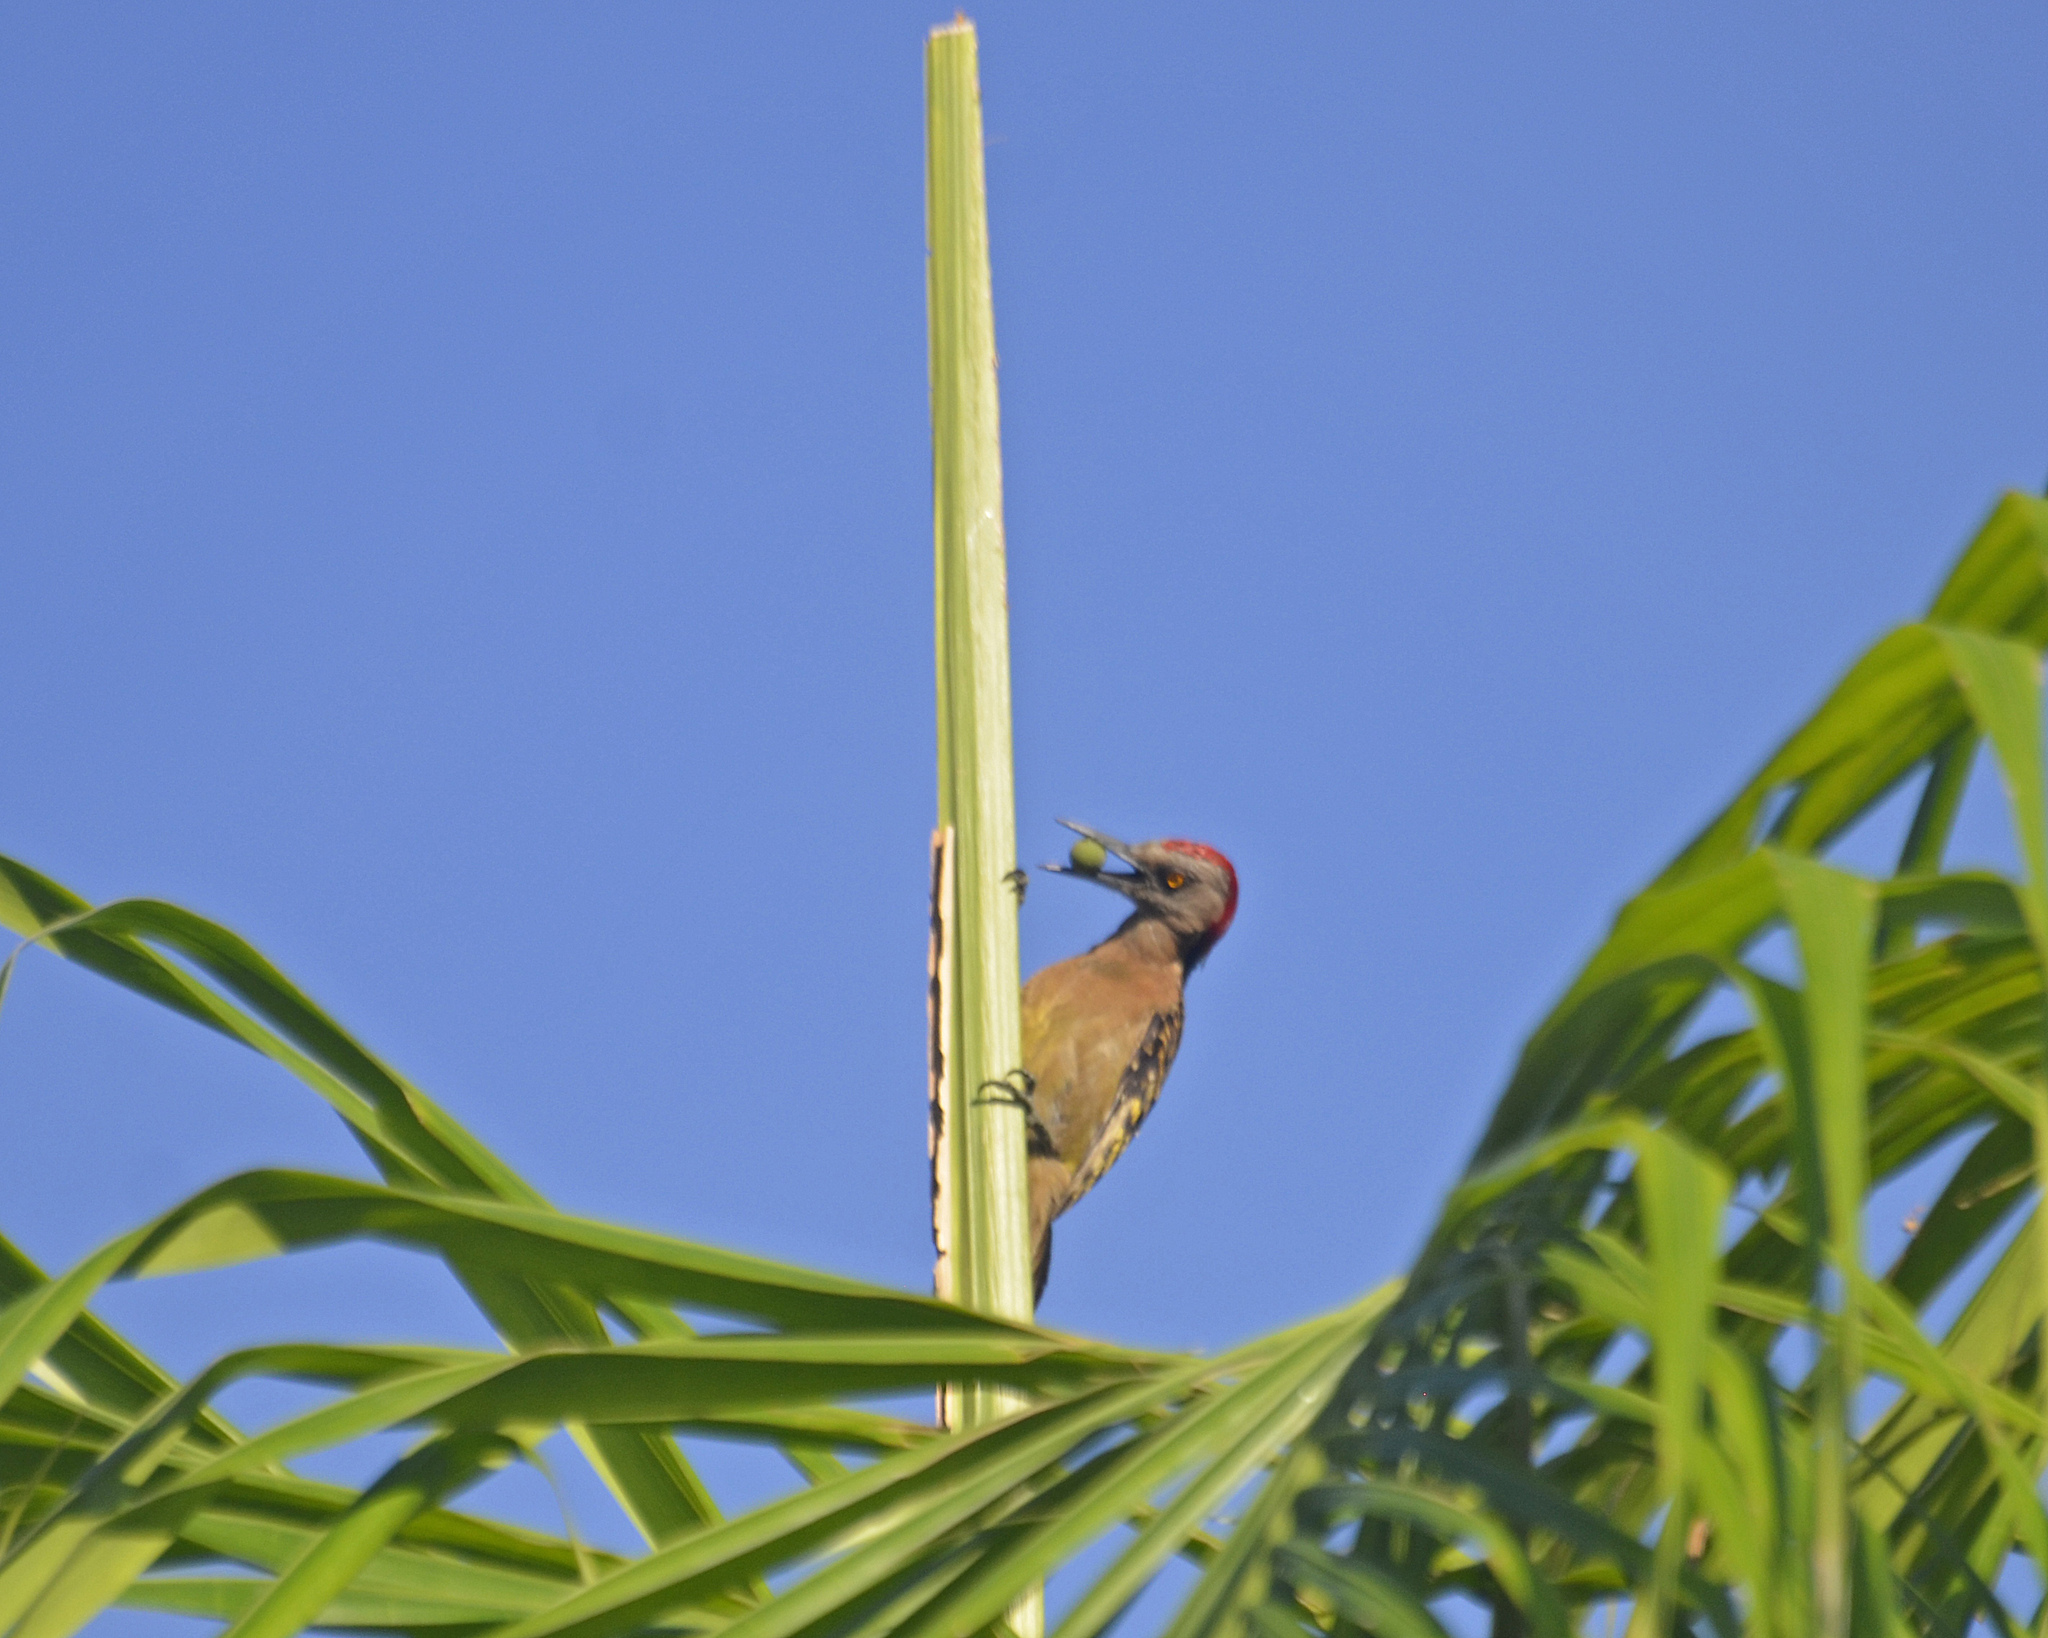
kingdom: Animalia
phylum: Chordata
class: Aves
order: Piciformes
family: Picidae
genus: Melanerpes
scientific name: Melanerpes striatus
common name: Hispaniolan woodpecker
